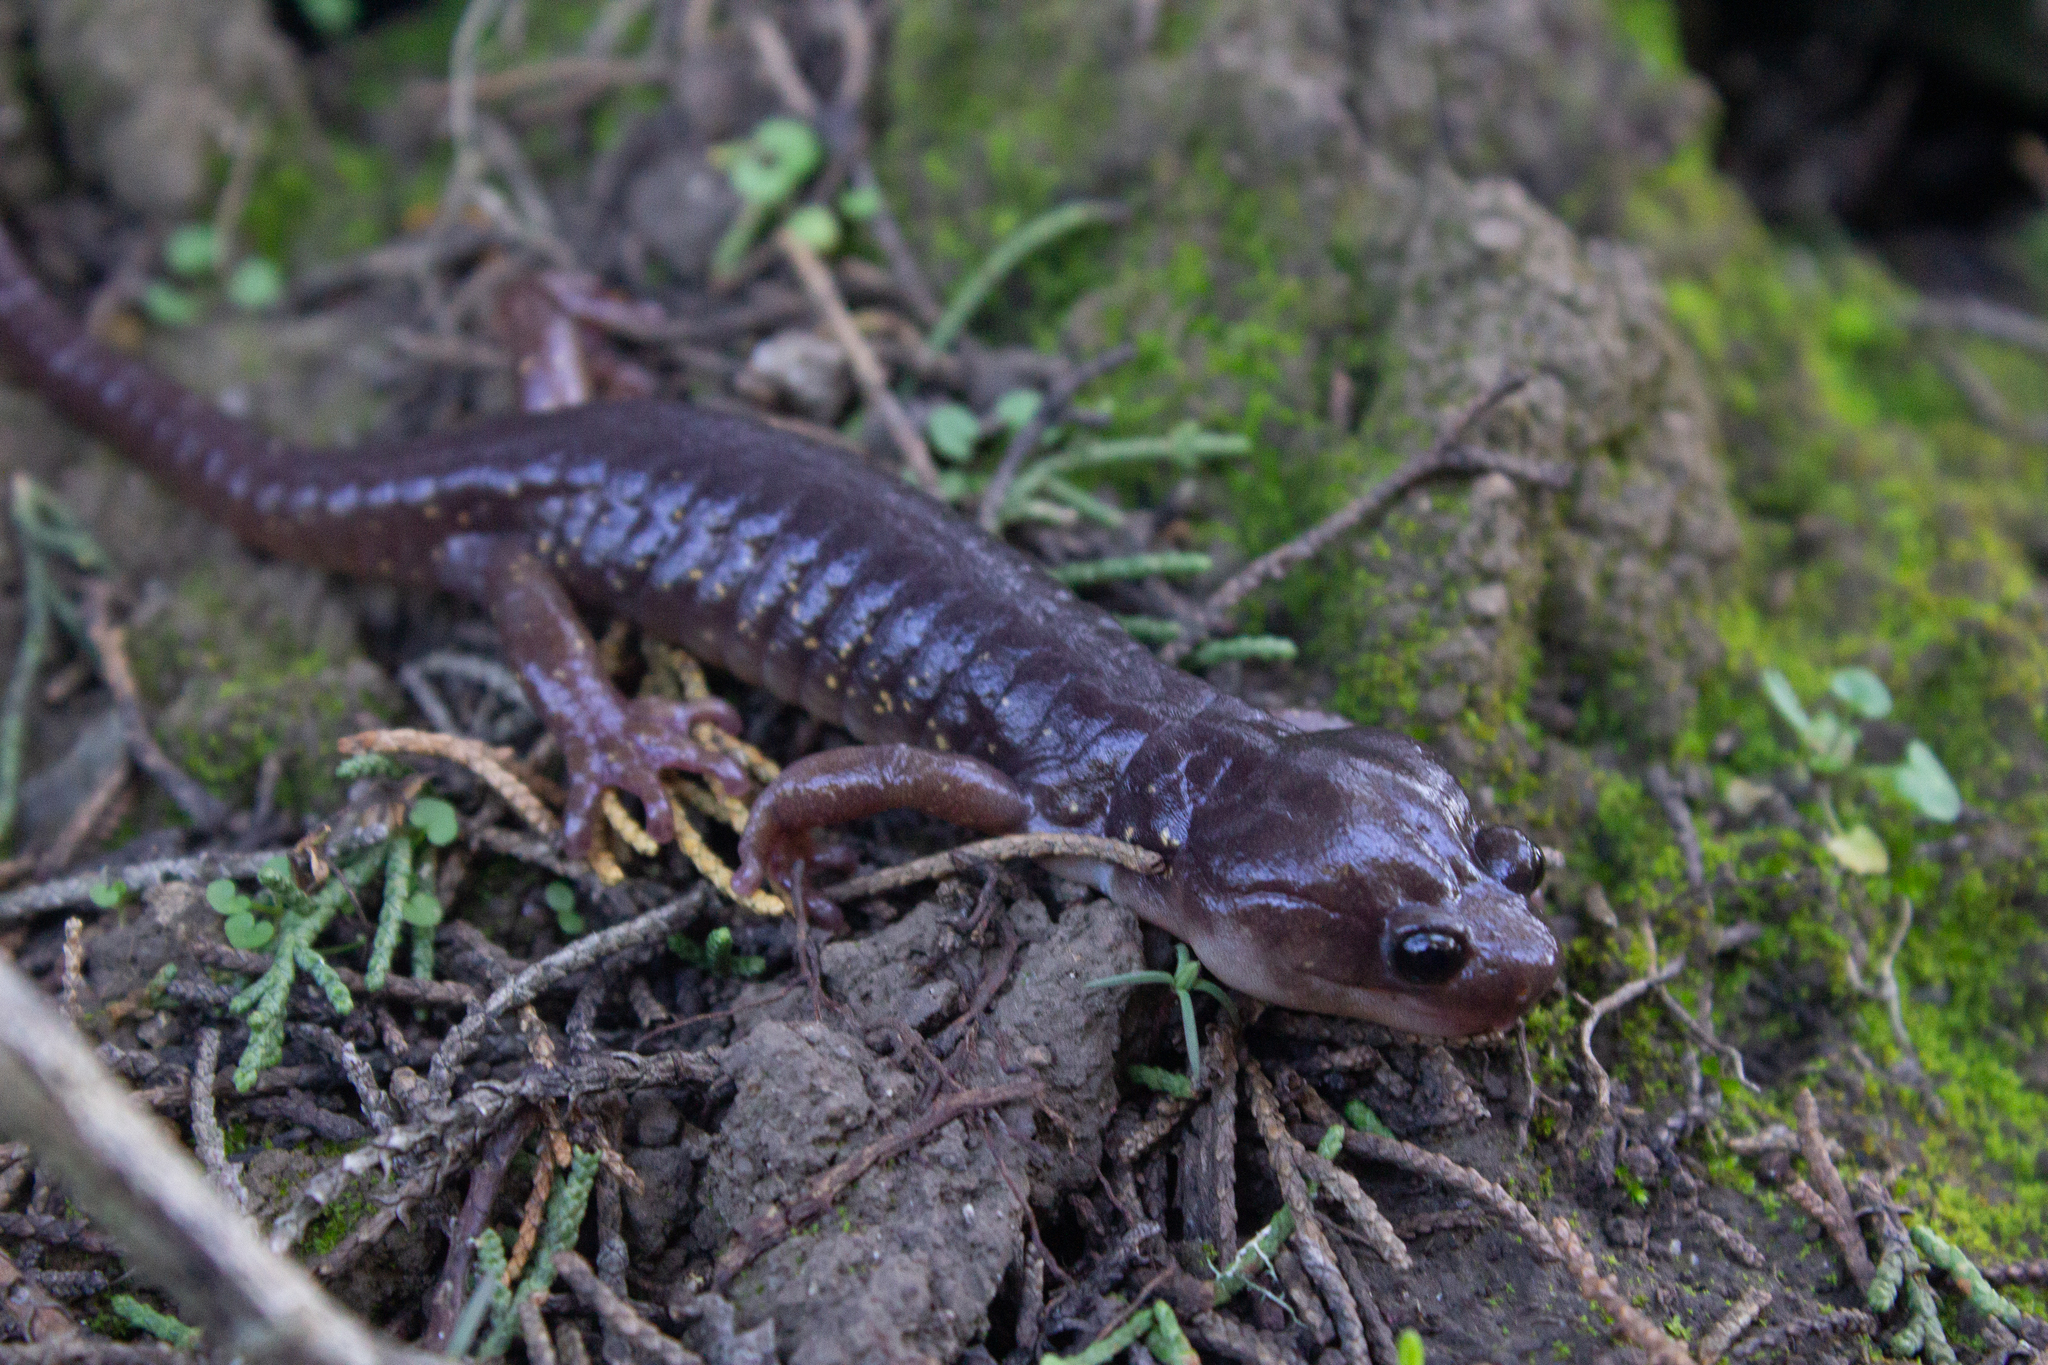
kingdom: Animalia
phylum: Chordata
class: Amphibia
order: Caudata
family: Plethodontidae
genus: Aneides
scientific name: Aneides lugubris
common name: Arboreal salamander
